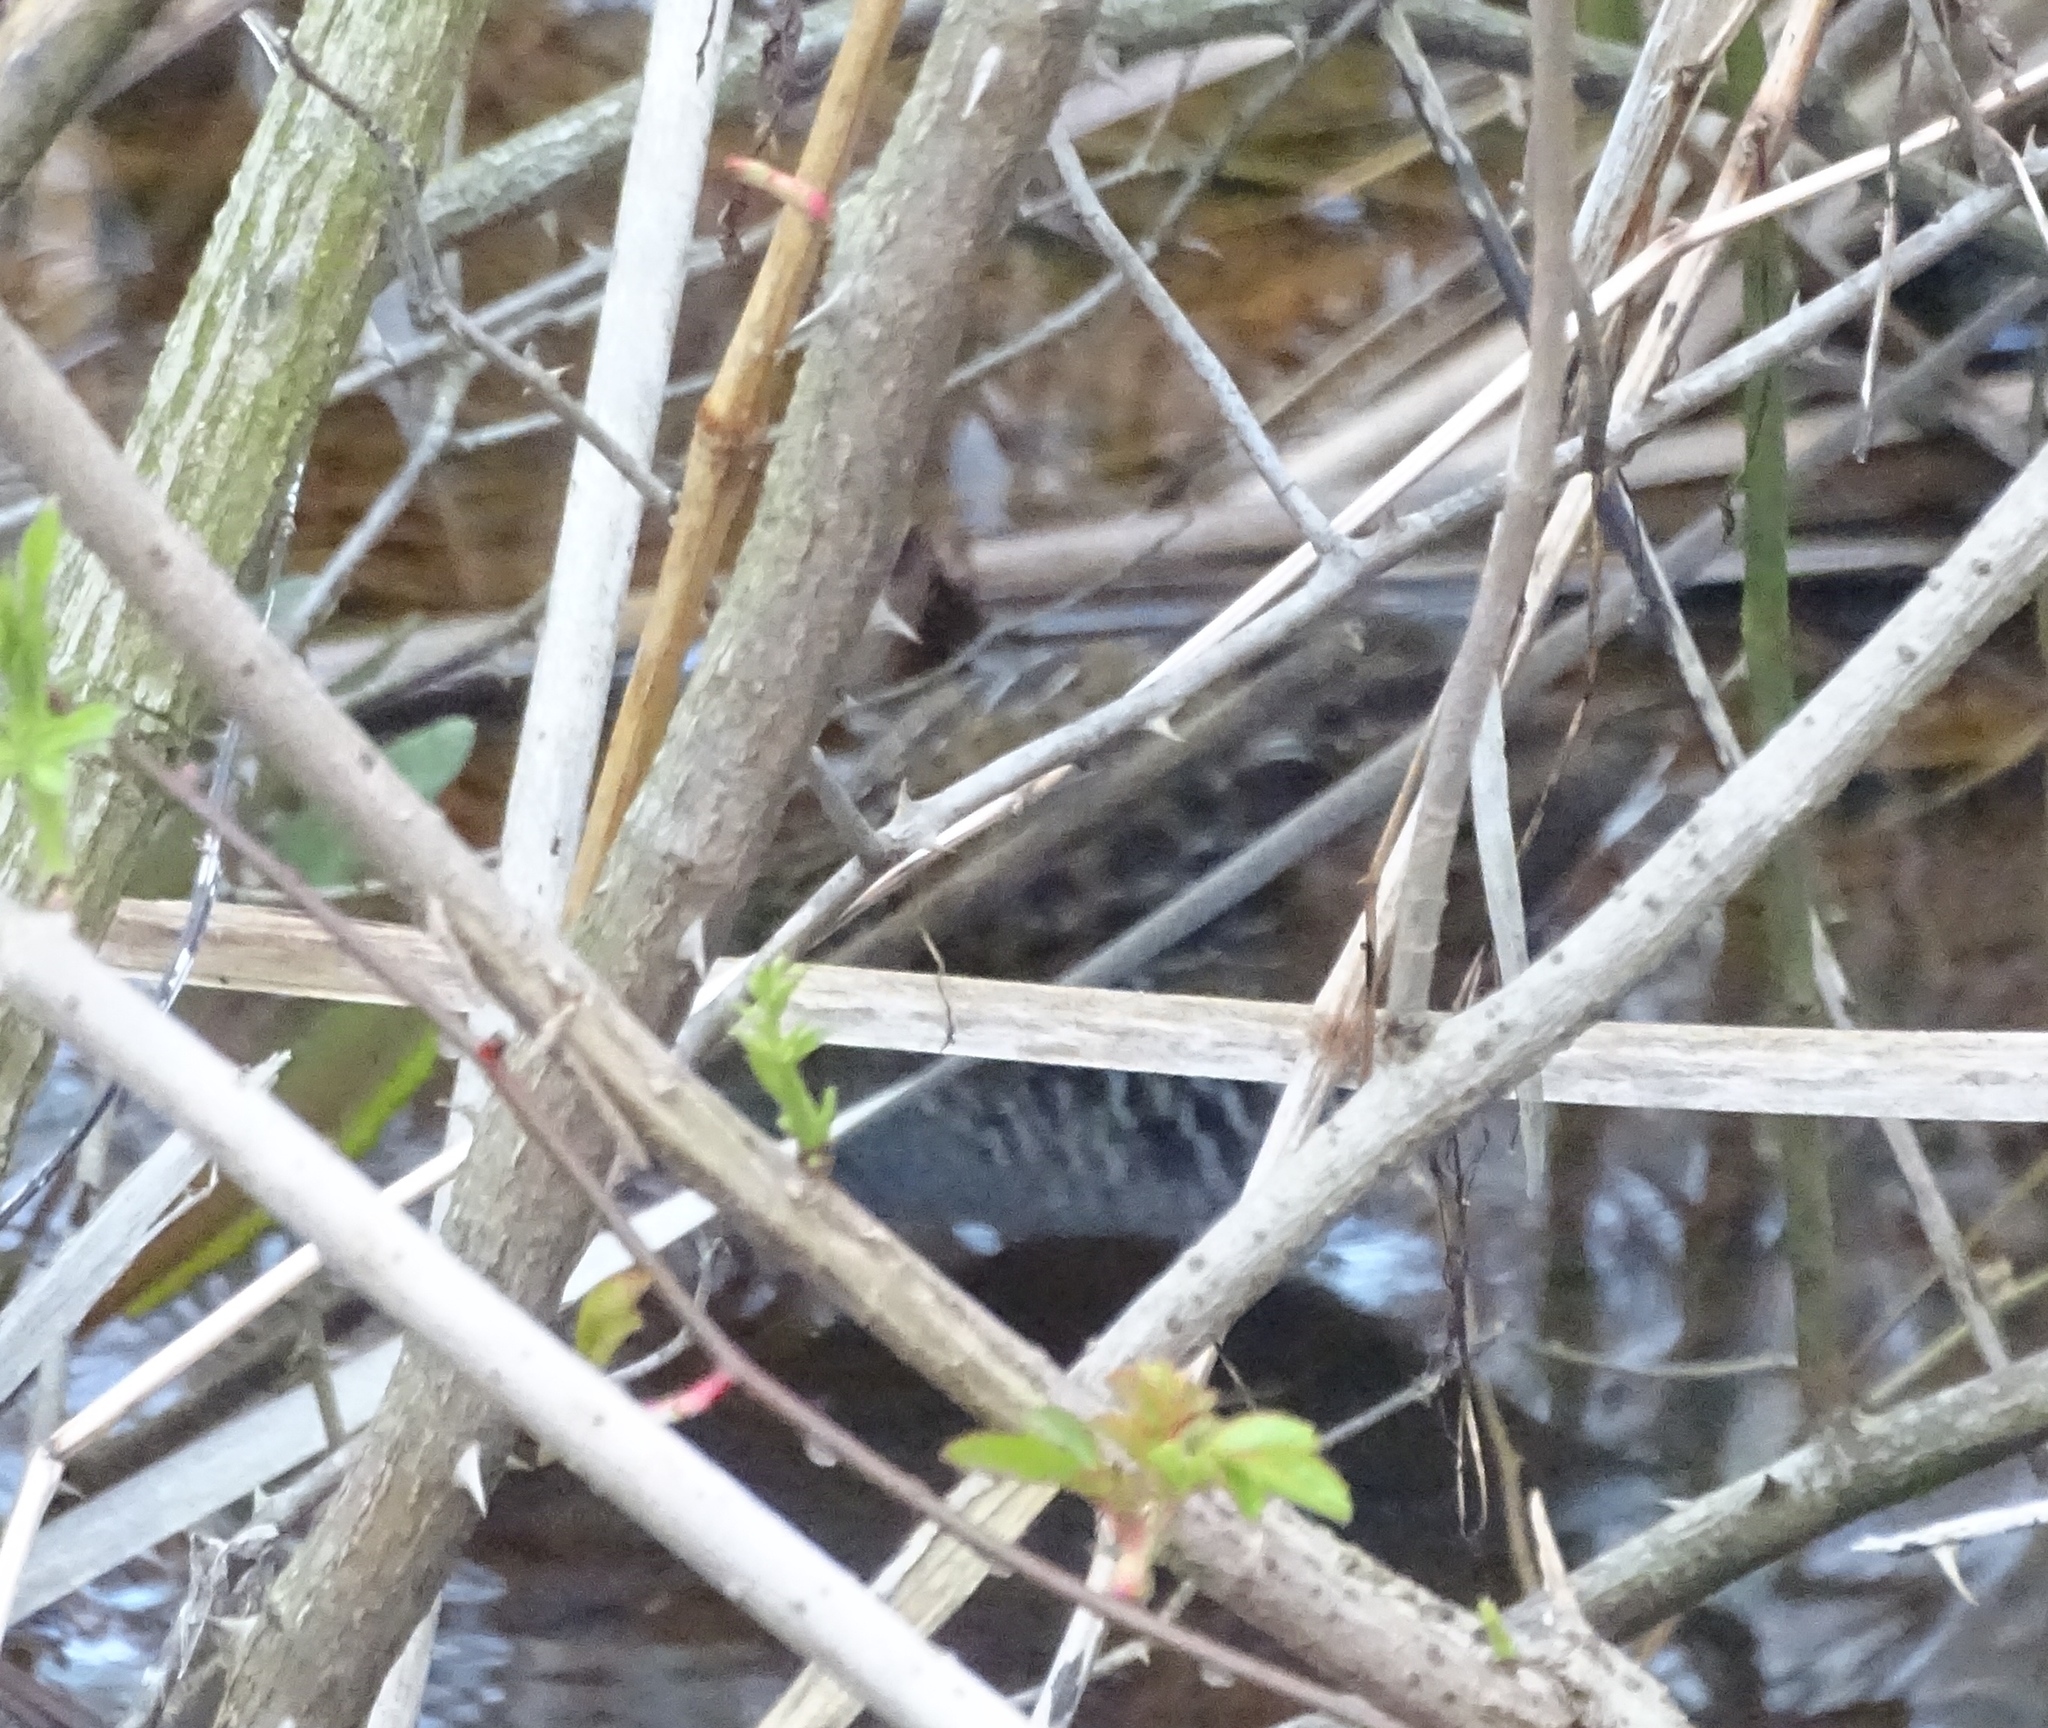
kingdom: Animalia
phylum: Chordata
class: Aves
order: Gruiformes
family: Rallidae
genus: Porzana
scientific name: Porzana carolina
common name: Sora
